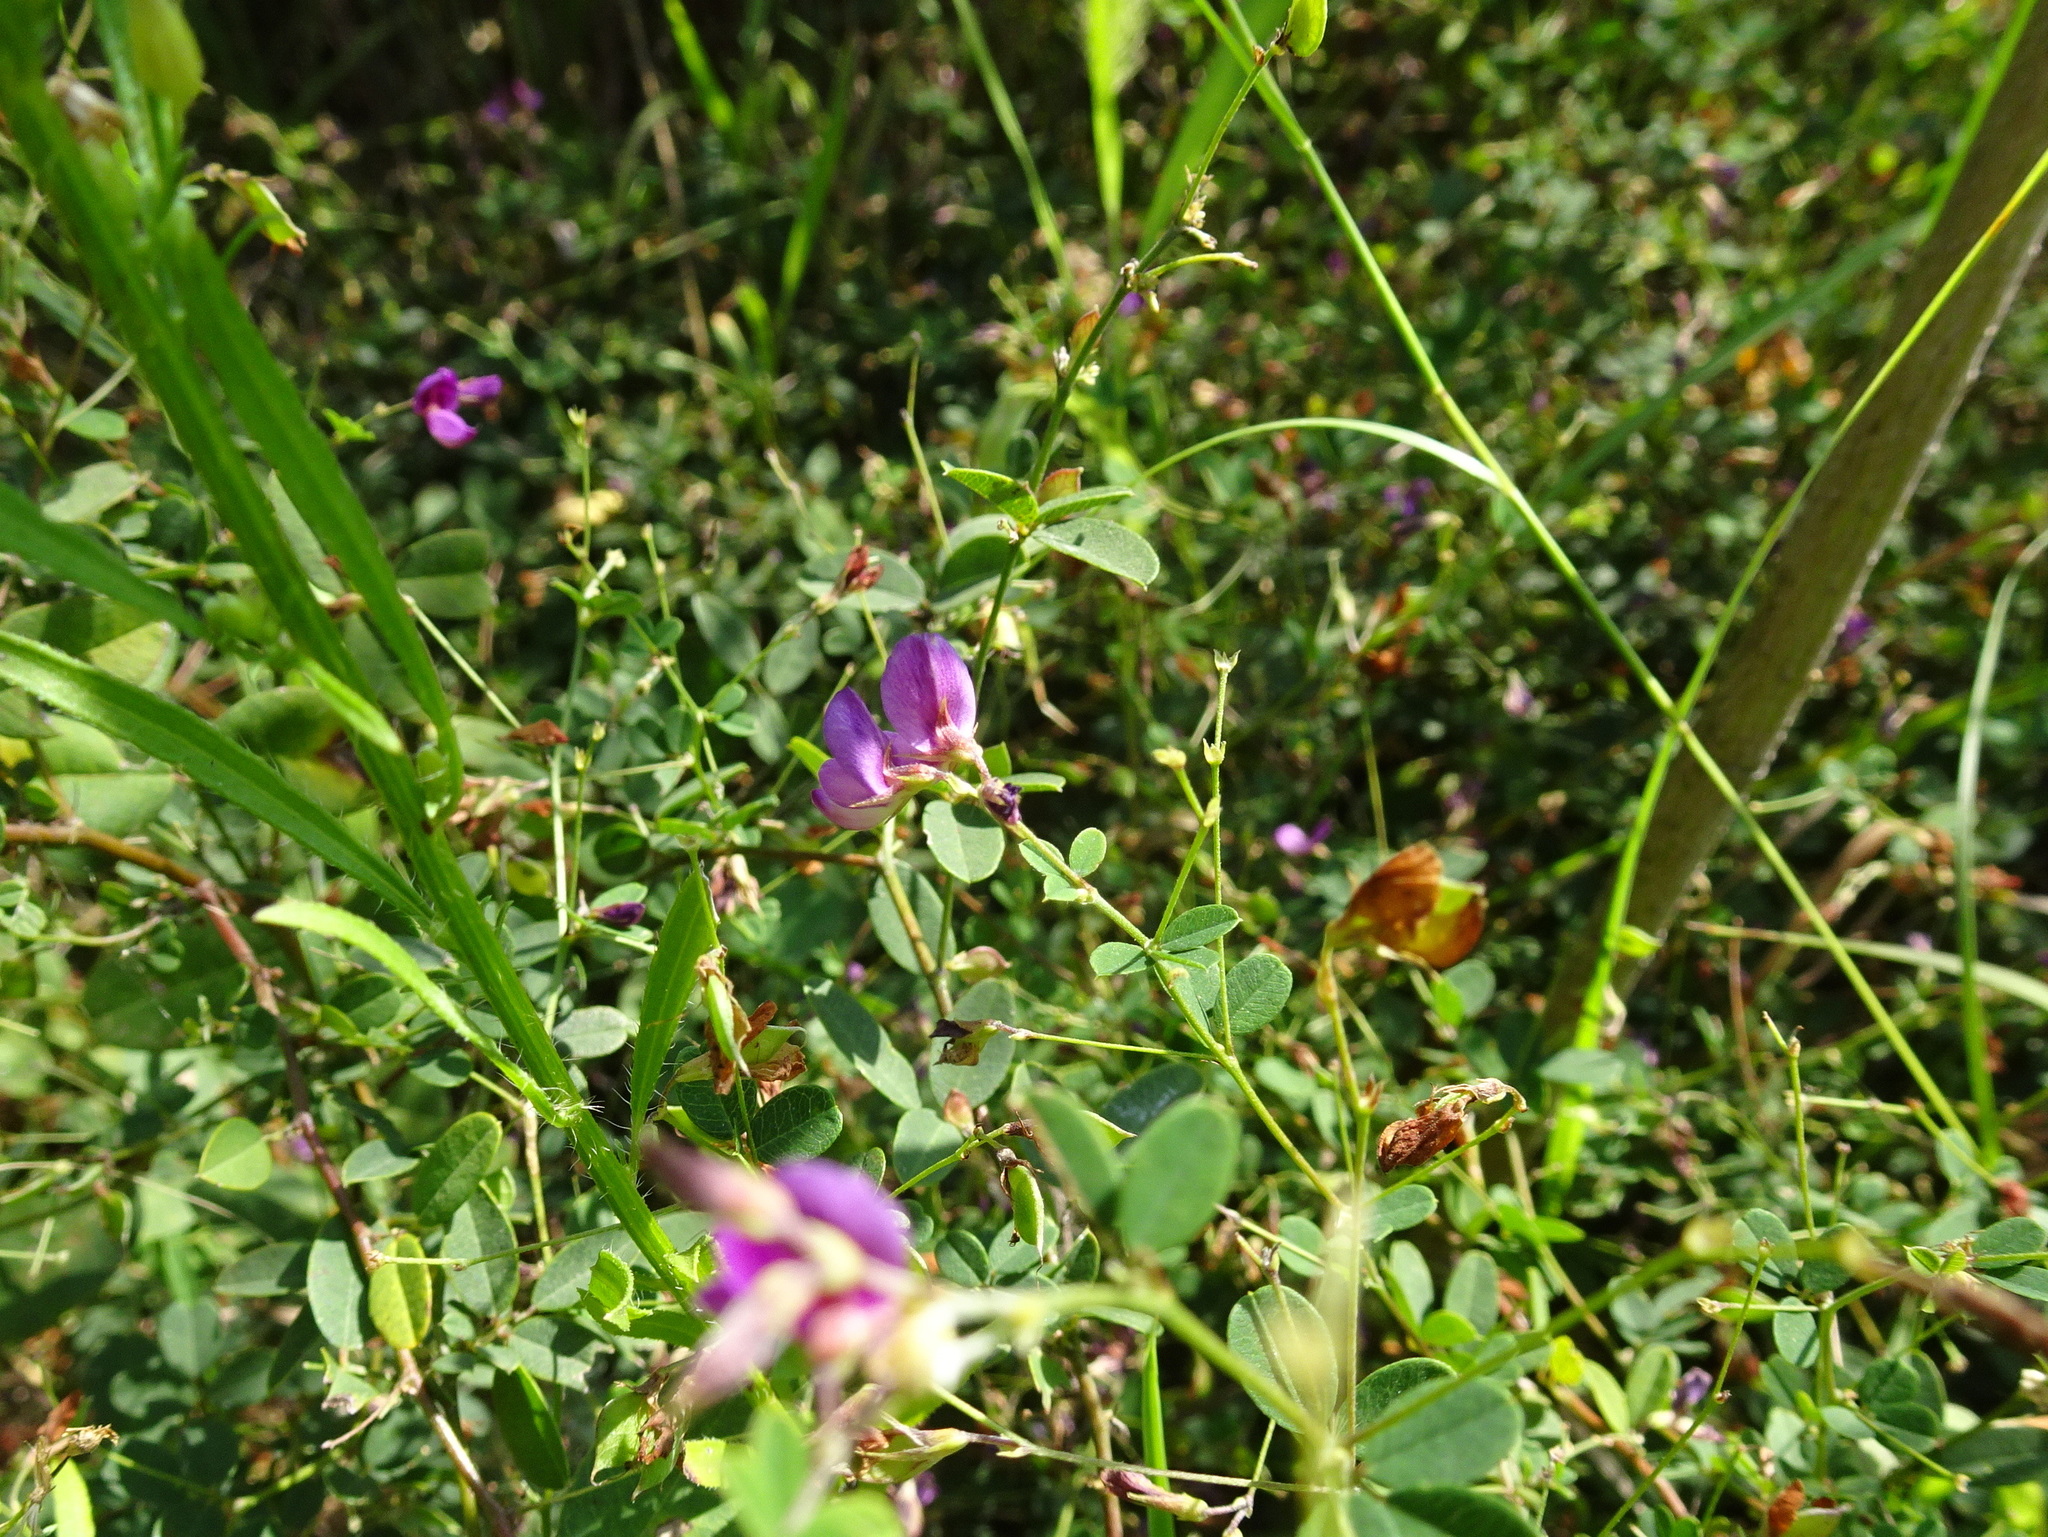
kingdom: Plantae
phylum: Tracheophyta
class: Magnoliopsida
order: Fabales
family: Fabaceae
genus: Lespedeza
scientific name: Lespedeza
